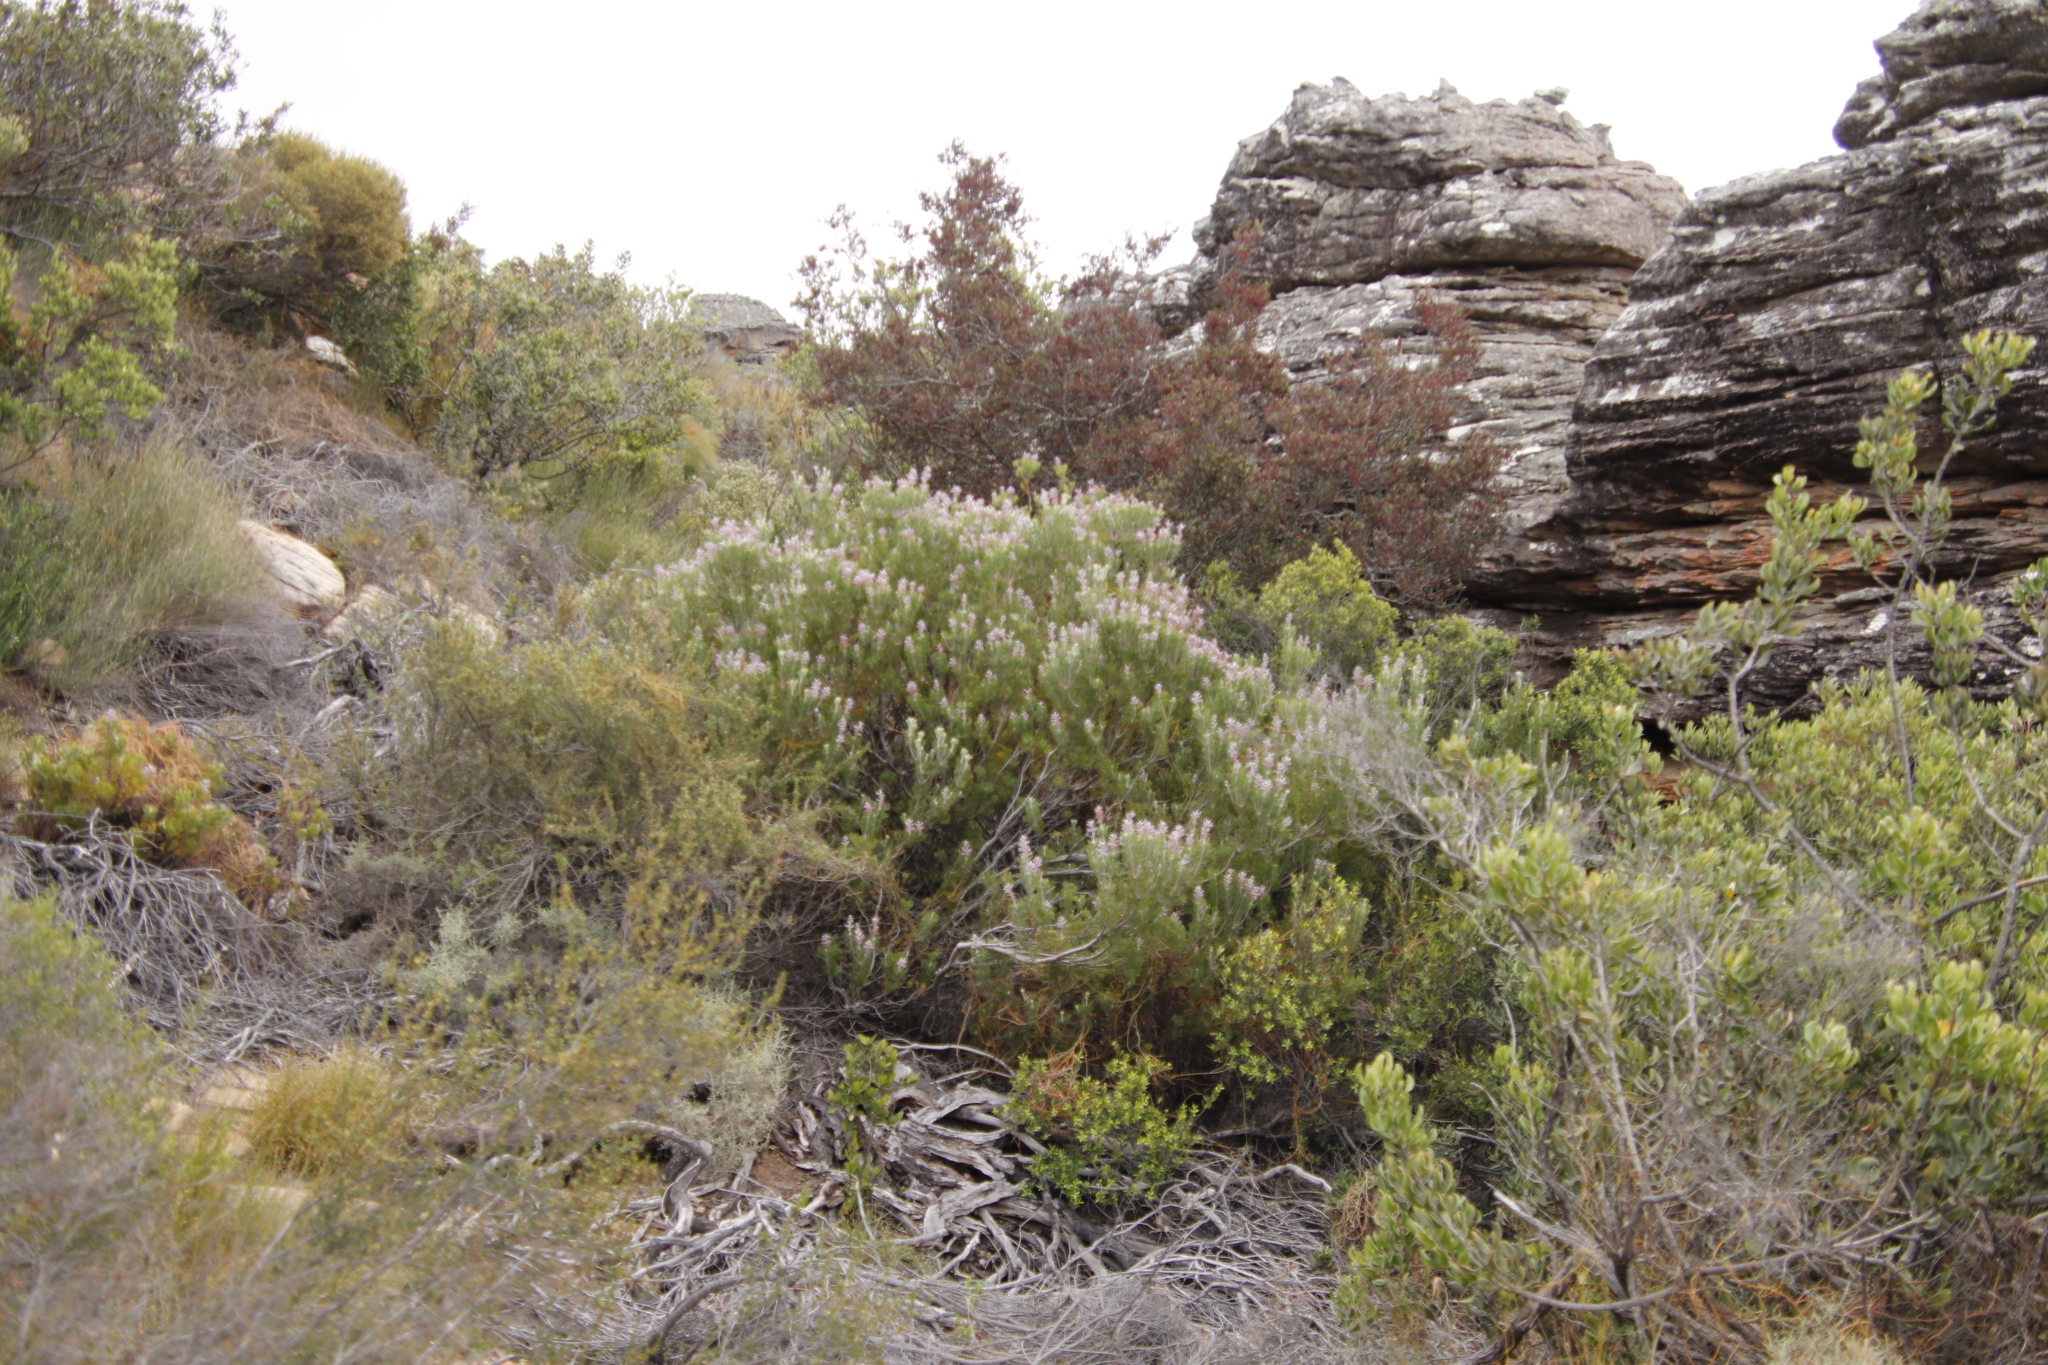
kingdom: Plantae
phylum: Tracheophyta
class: Magnoliopsida
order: Proteales
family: Proteaceae
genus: Paranomus
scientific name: Paranomus bracteolaris
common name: Bokkeveld tree sceptre
